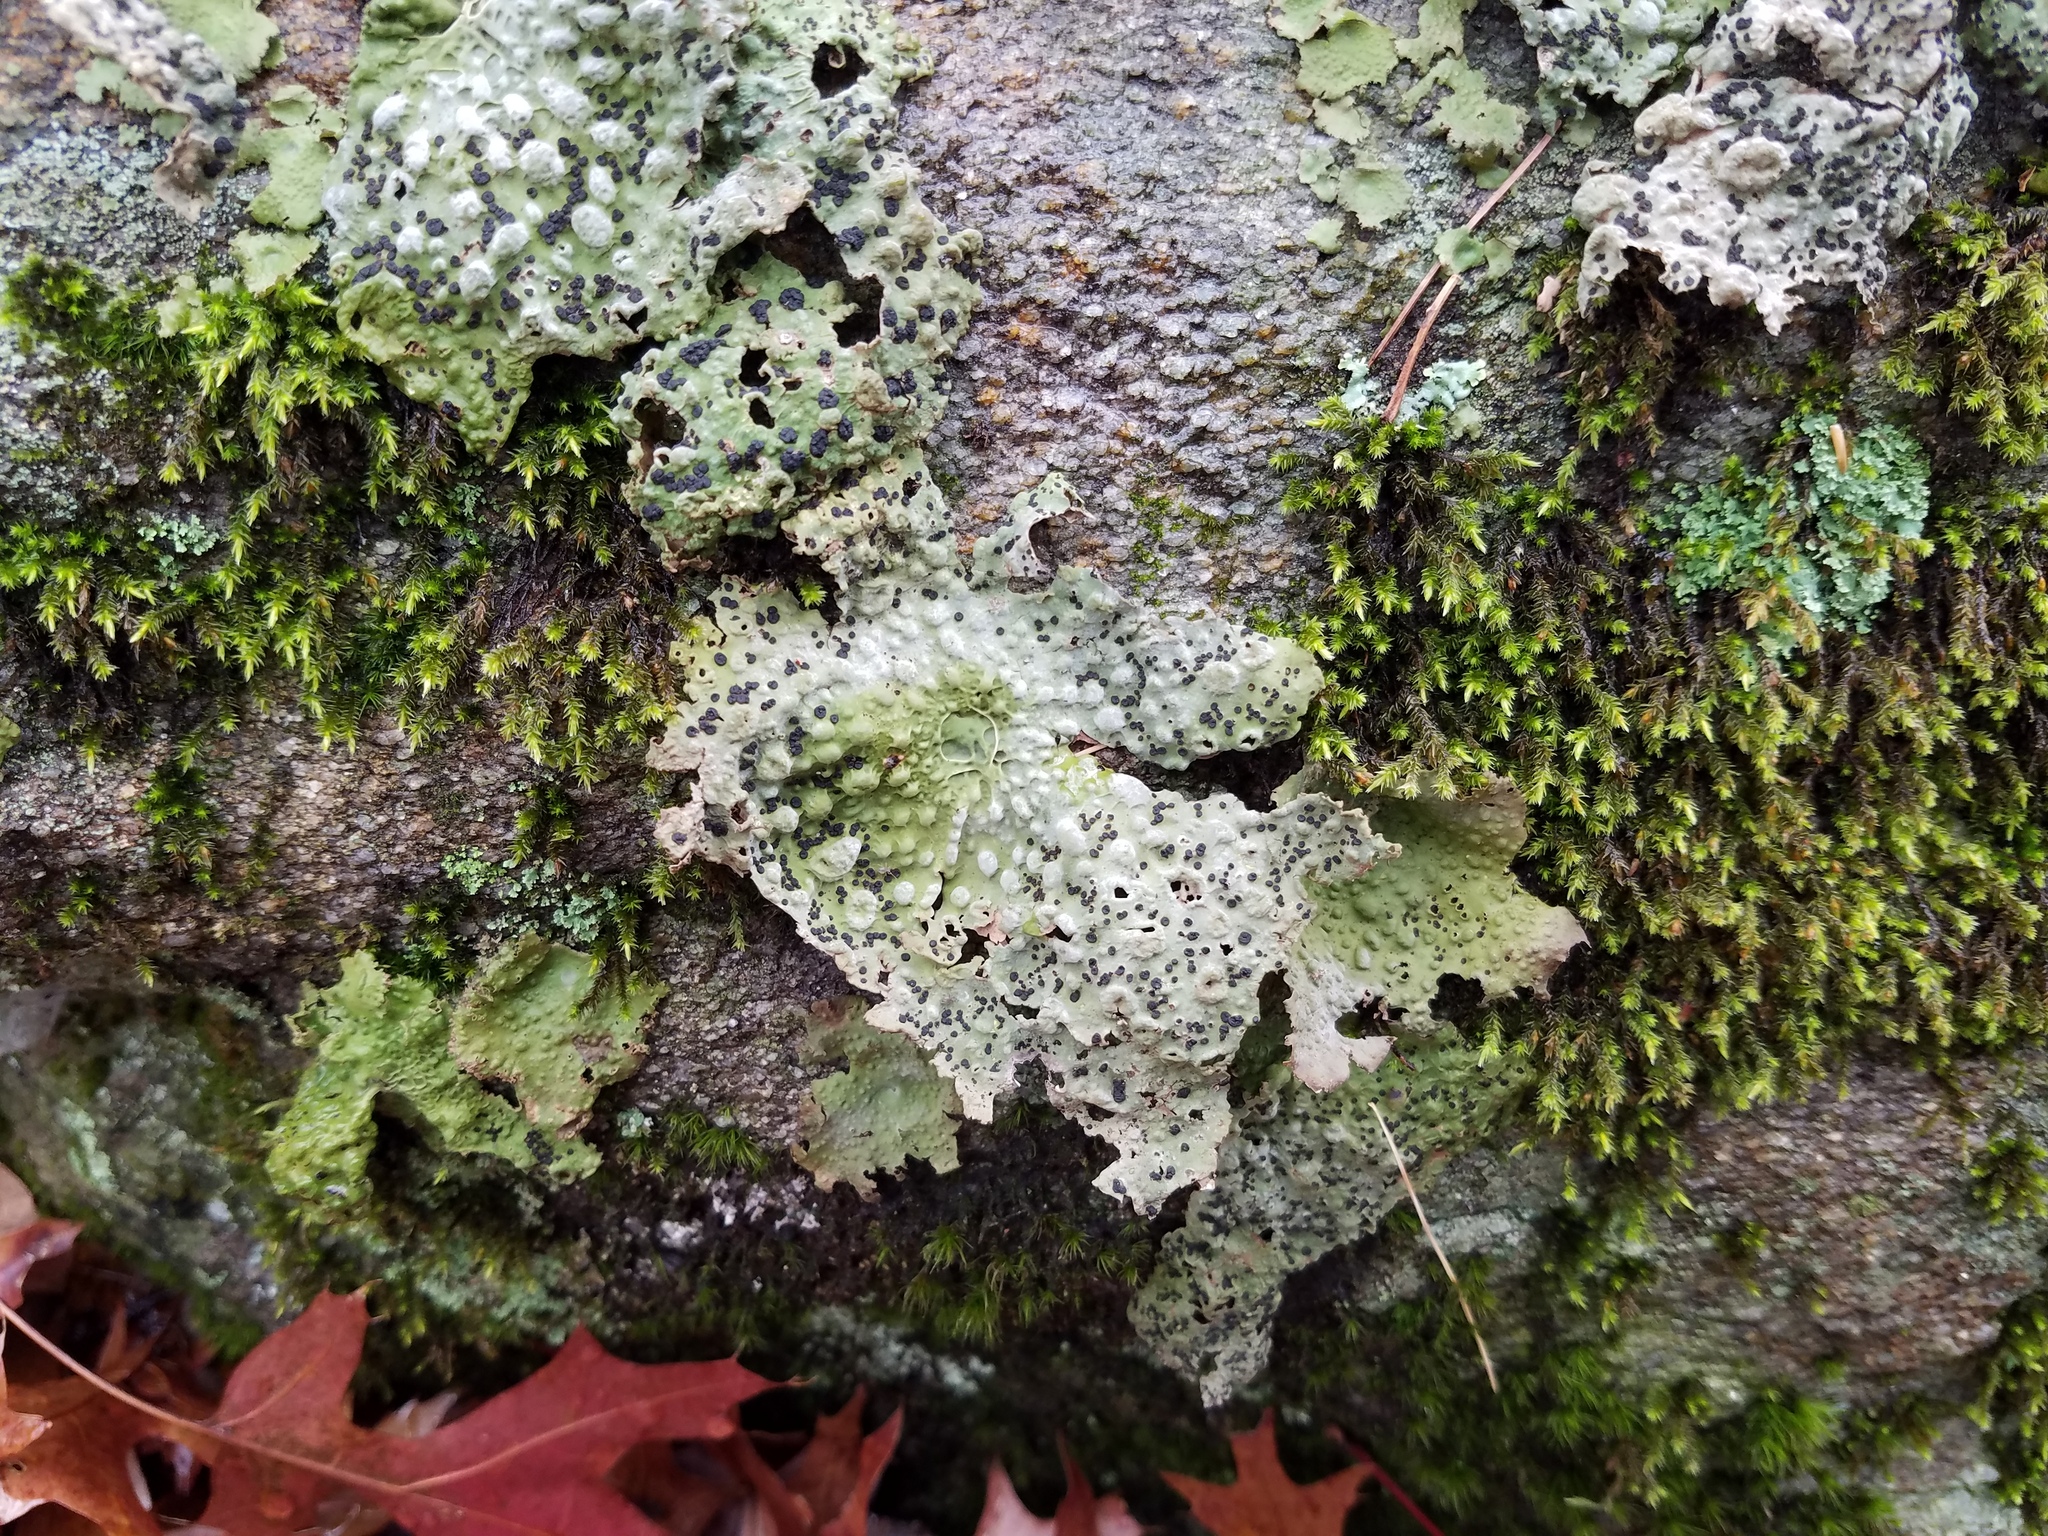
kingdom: Fungi
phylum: Ascomycota
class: Lecanoromycetes
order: Umbilicariales
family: Umbilicariaceae
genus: Lasallia
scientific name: Lasallia papulosa
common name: Common toadskin lichen
